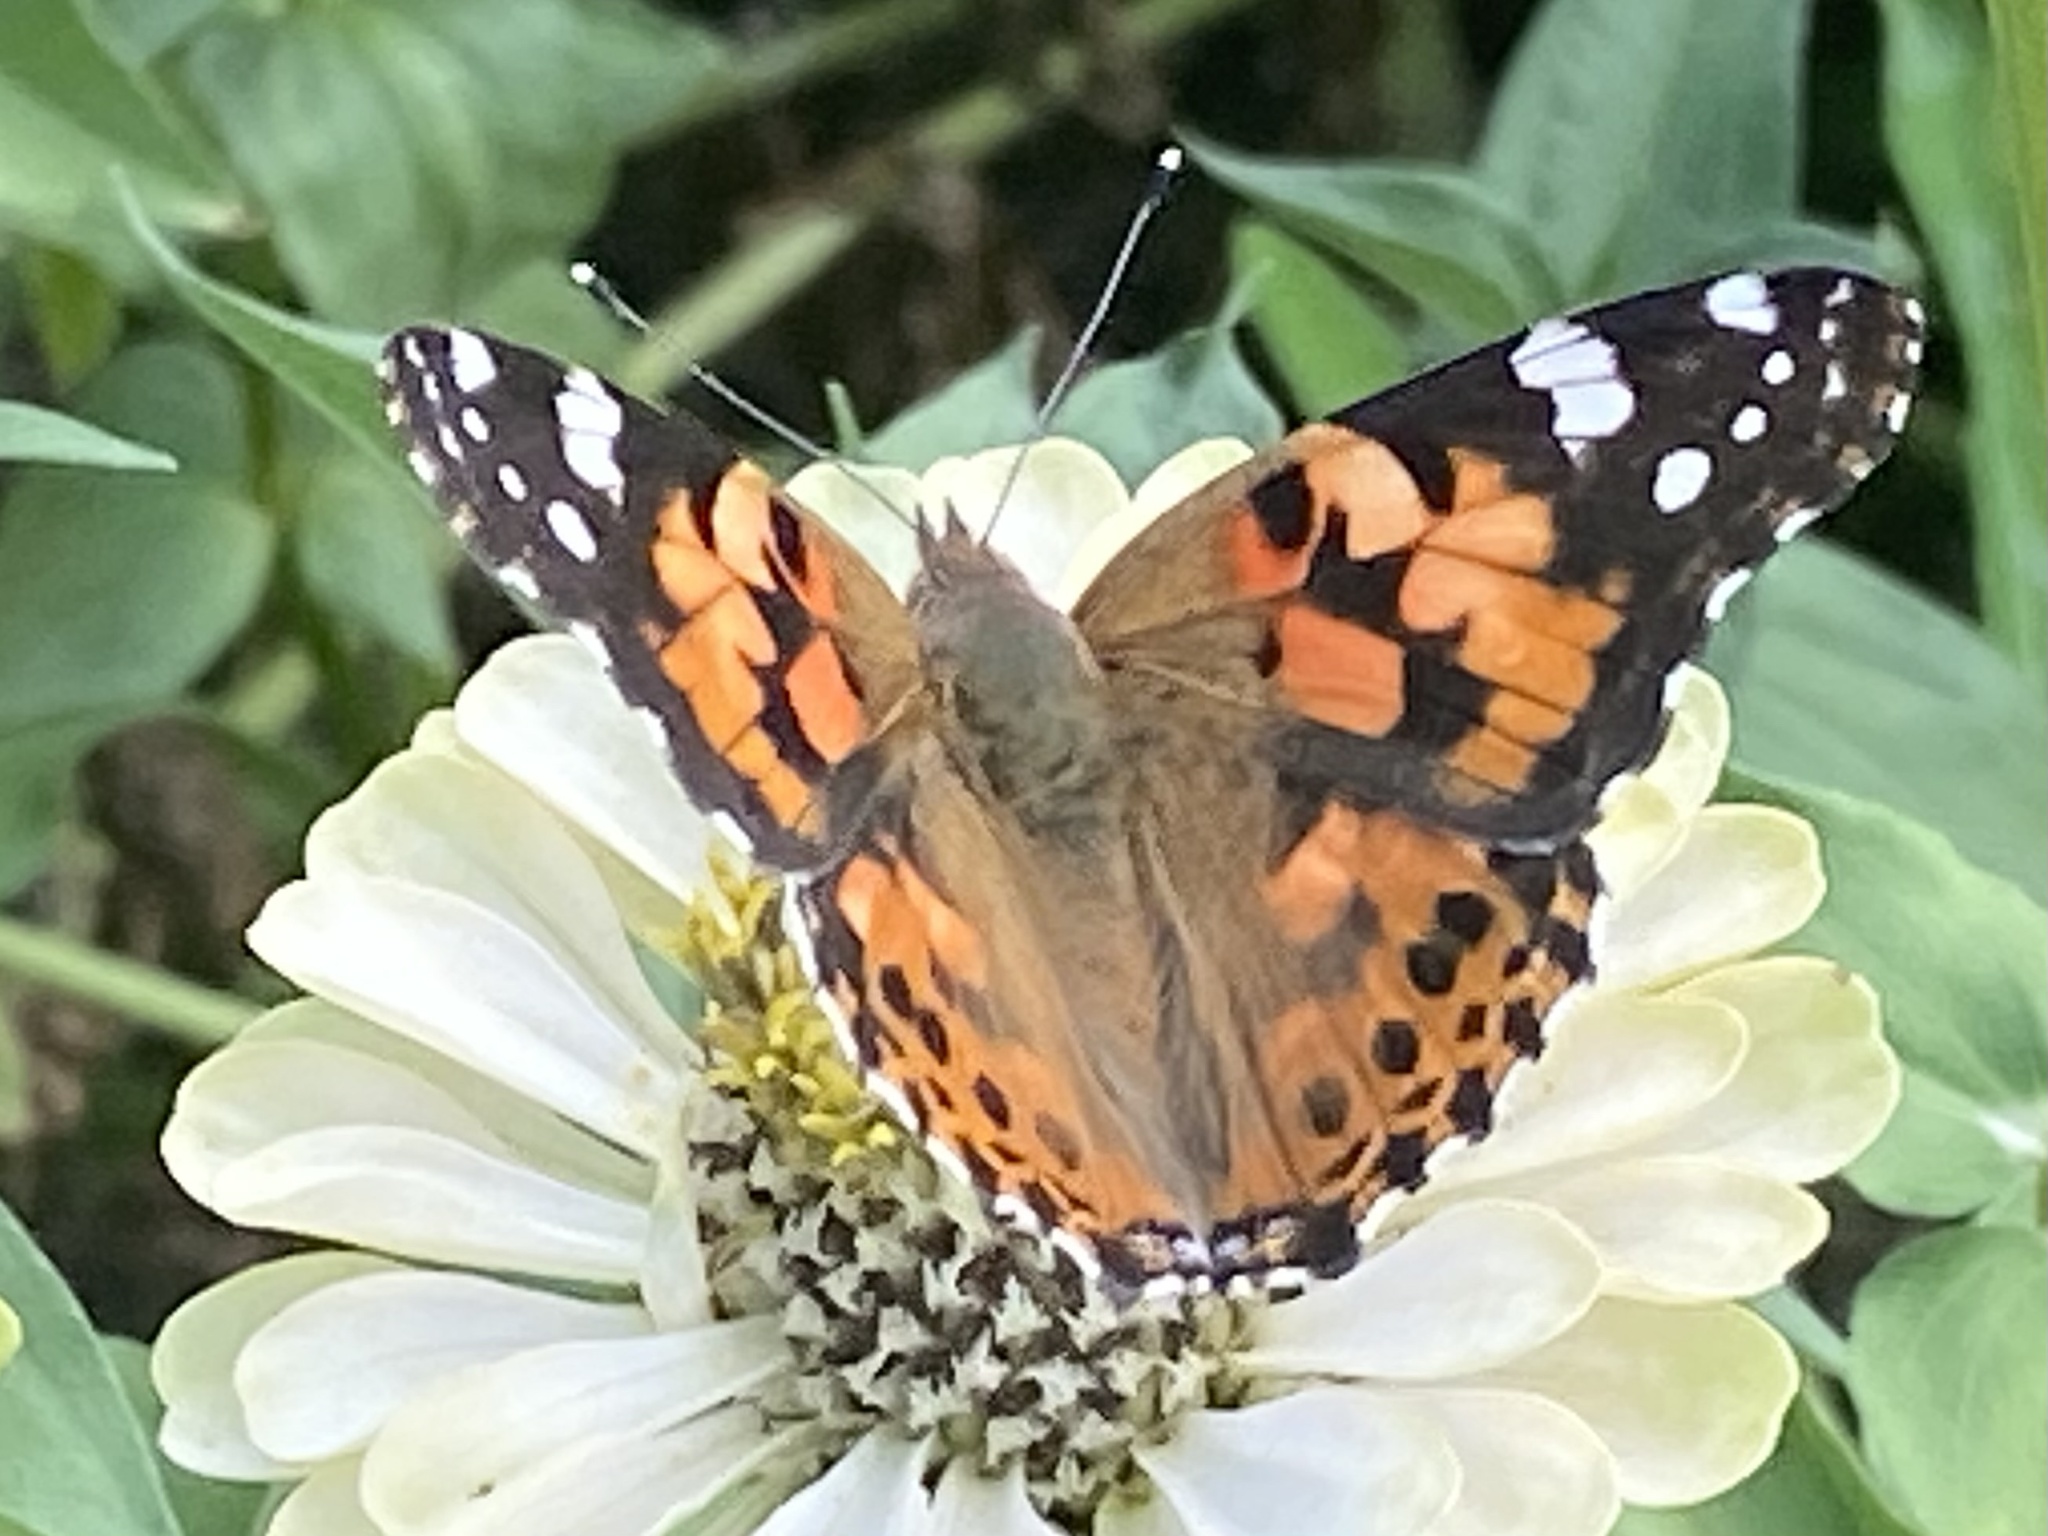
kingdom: Animalia
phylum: Arthropoda
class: Insecta
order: Lepidoptera
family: Nymphalidae
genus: Vanessa
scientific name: Vanessa cardui
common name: Painted lady
